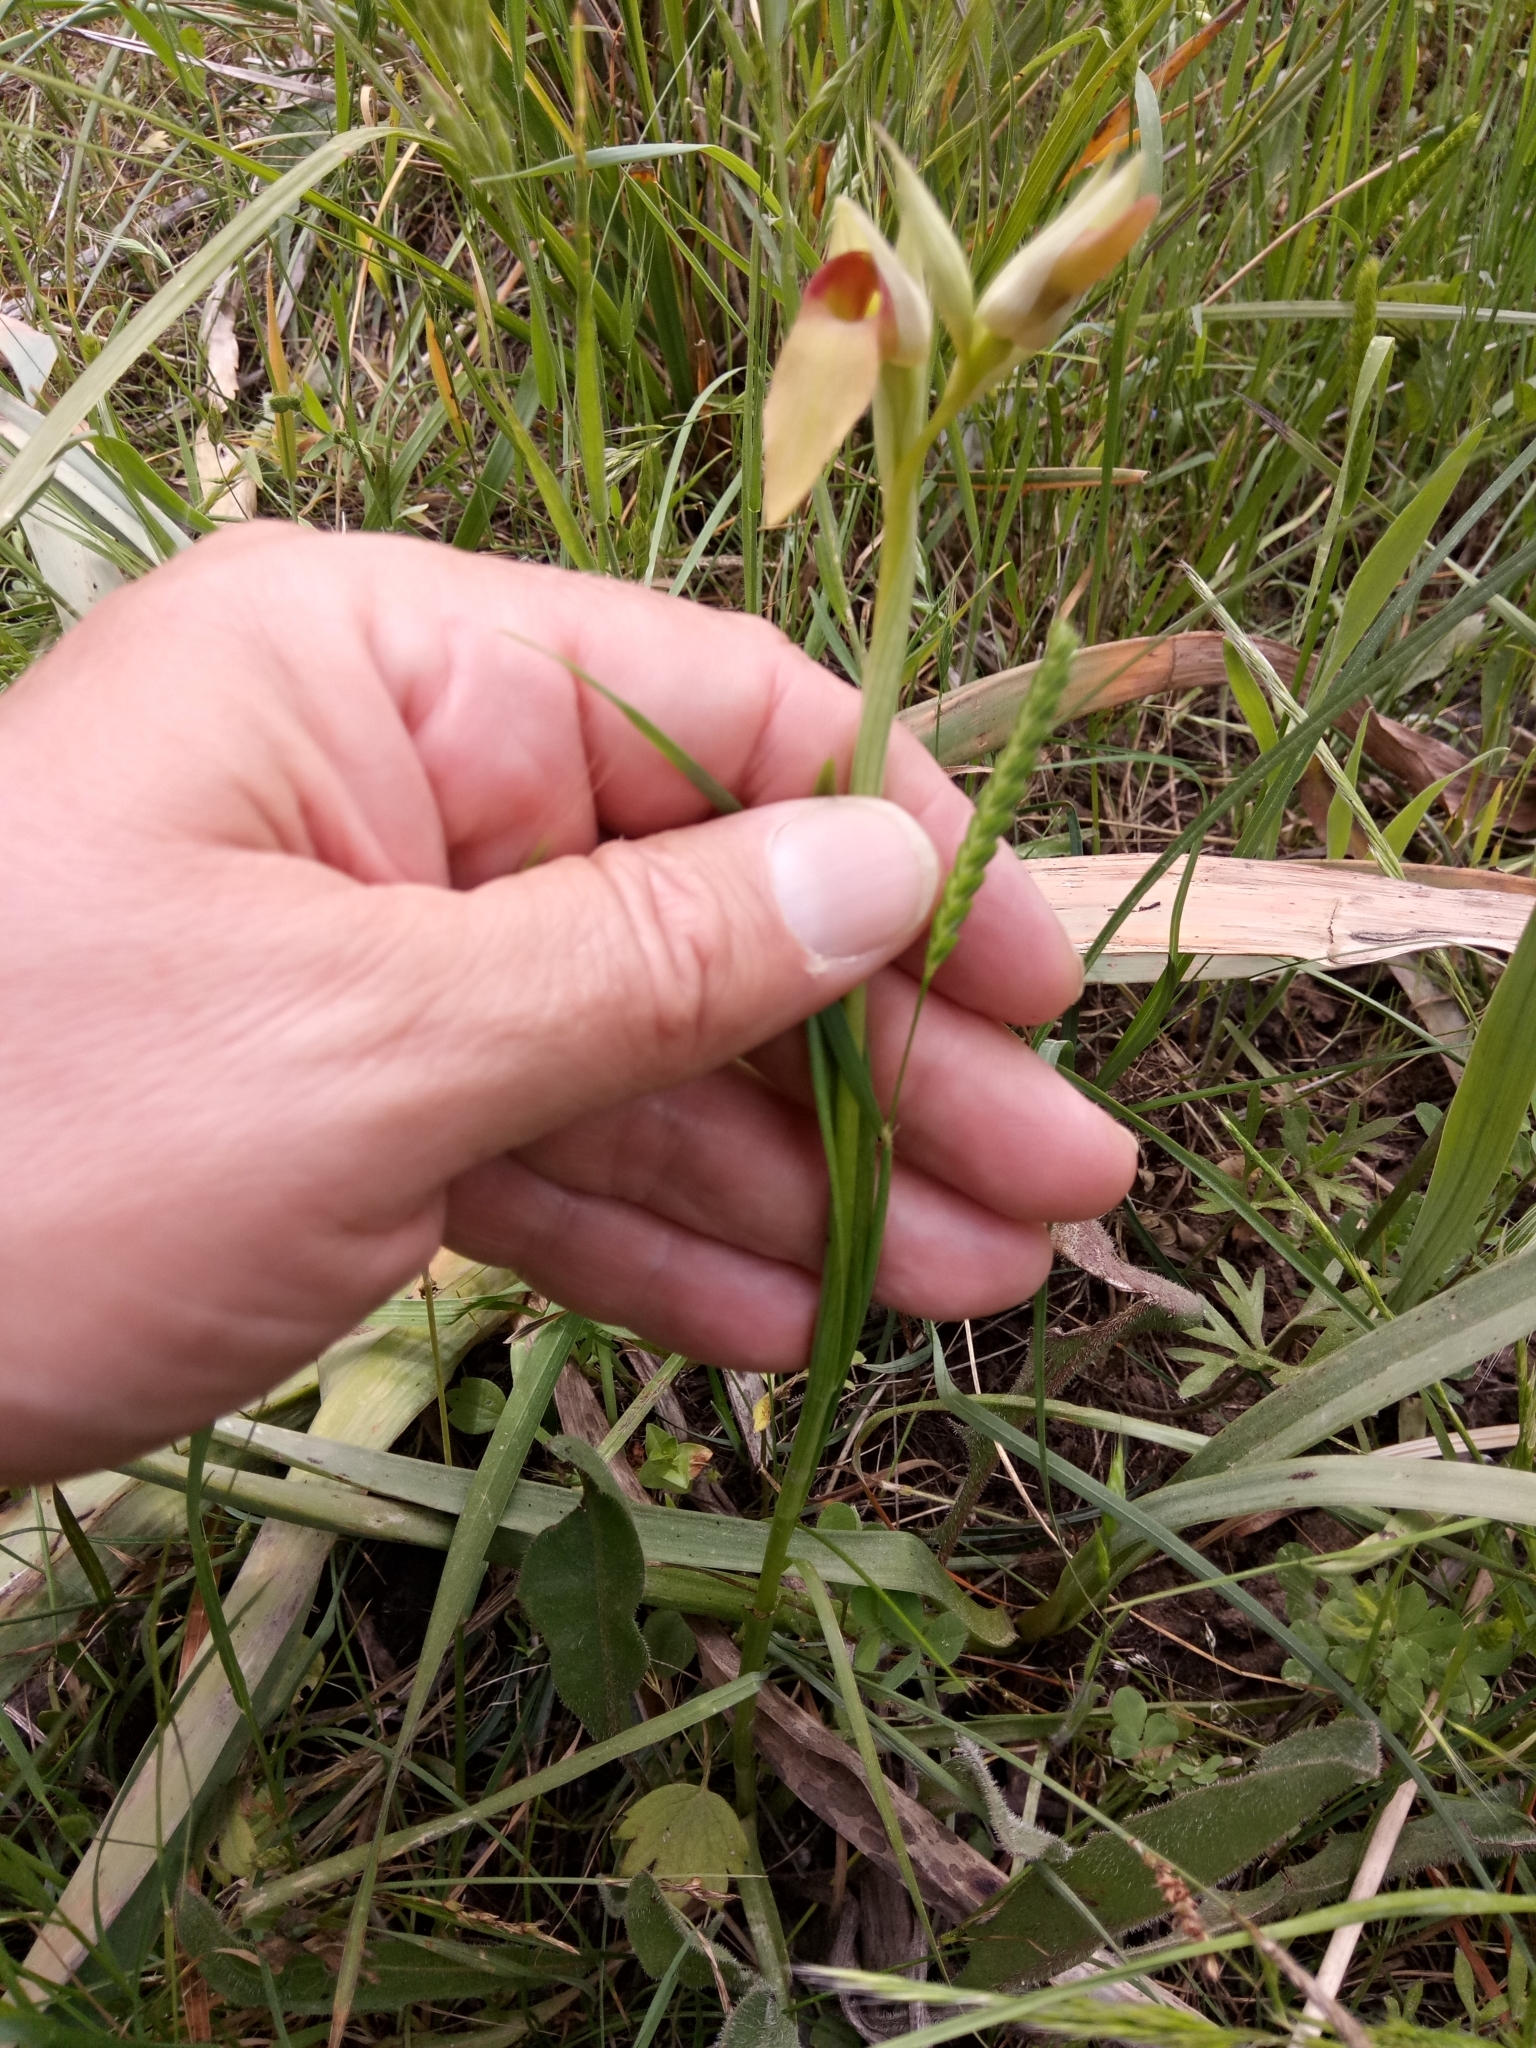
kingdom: Plantae
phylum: Tracheophyta
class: Liliopsida
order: Asparagales
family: Orchidaceae
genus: Serapias
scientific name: Serapias lingua
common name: Tongue-orchid
